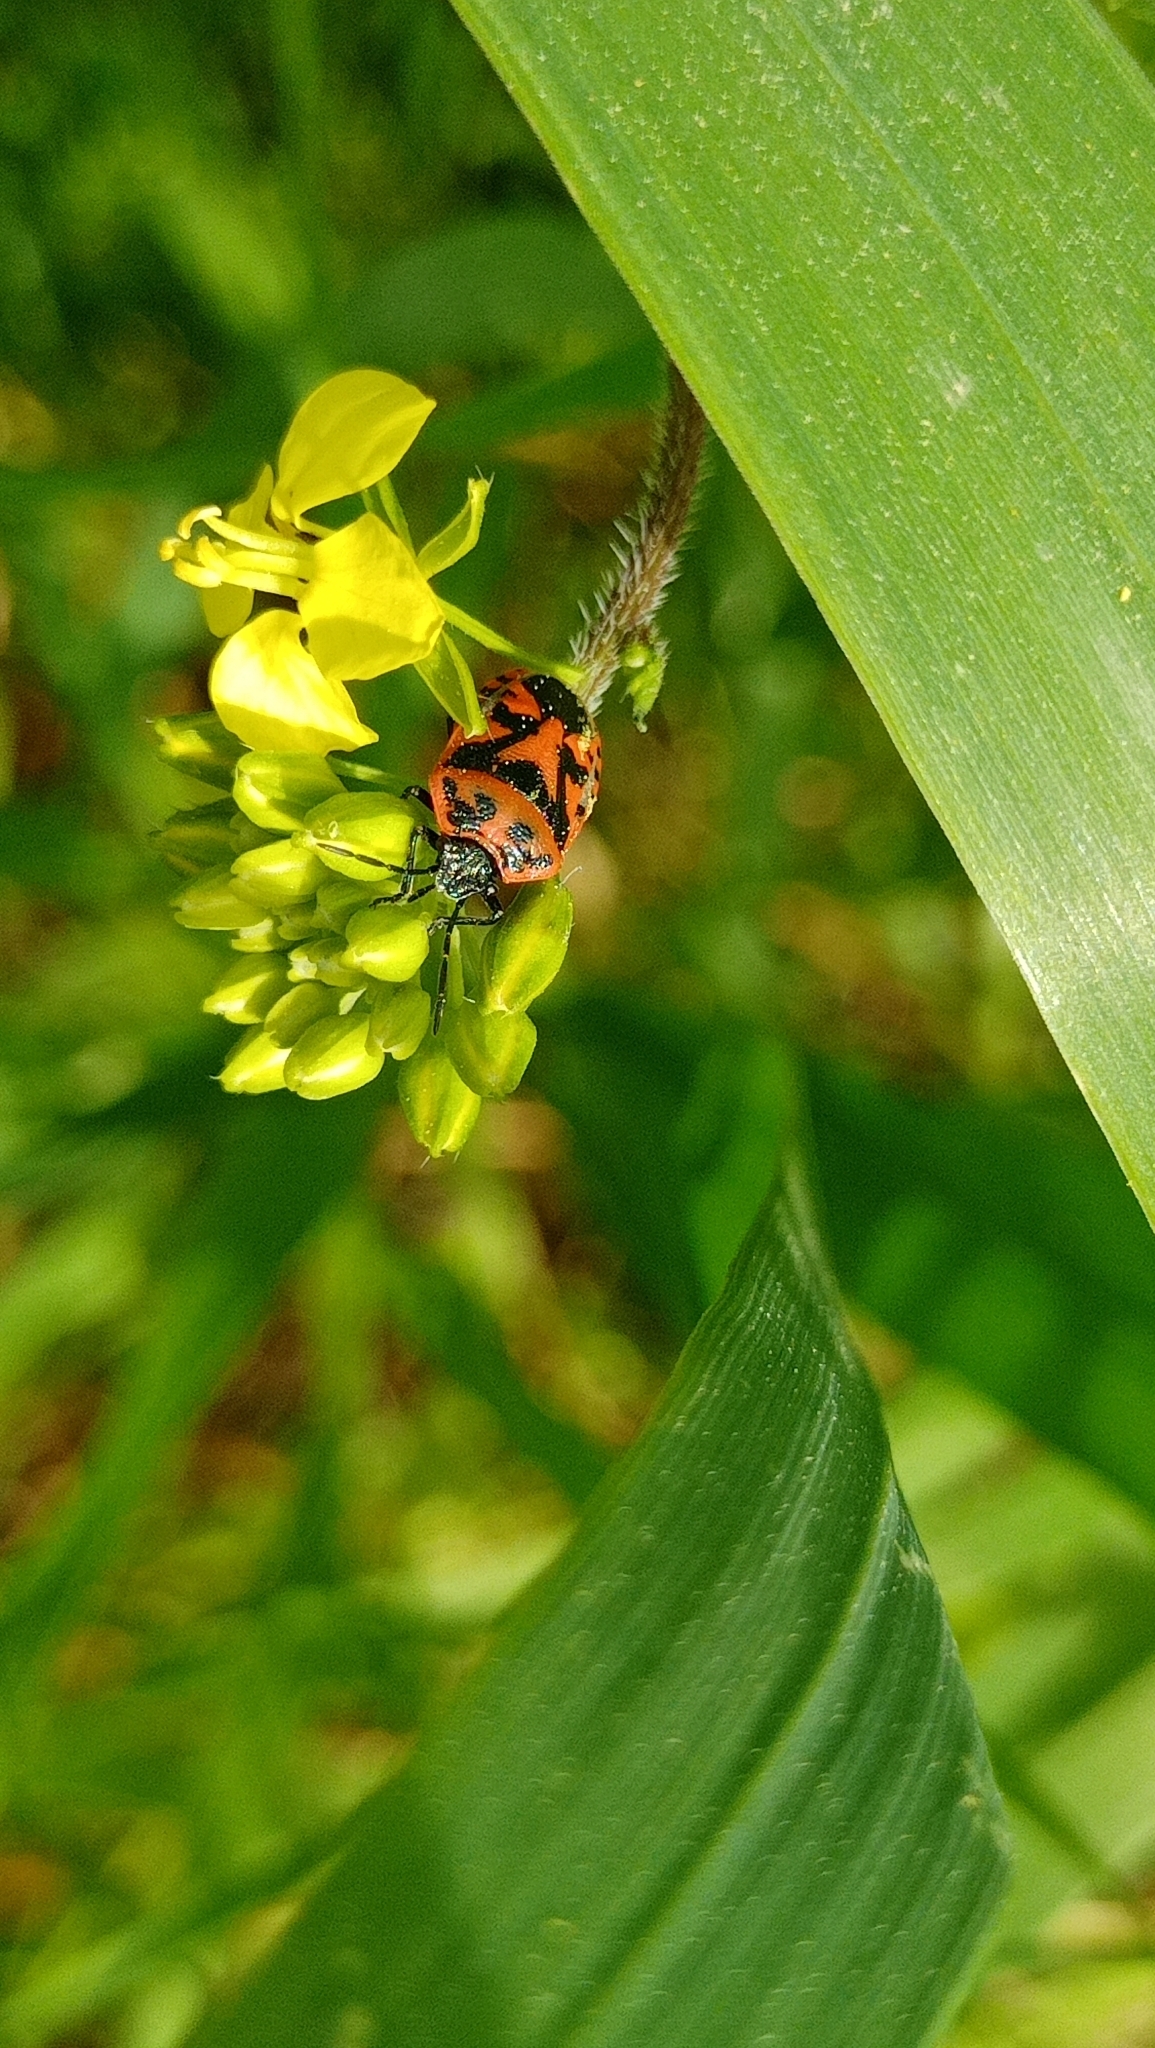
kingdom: Animalia
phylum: Arthropoda
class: Insecta
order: Hemiptera
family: Pentatomidae
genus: Eurydema
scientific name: Eurydema ornata
